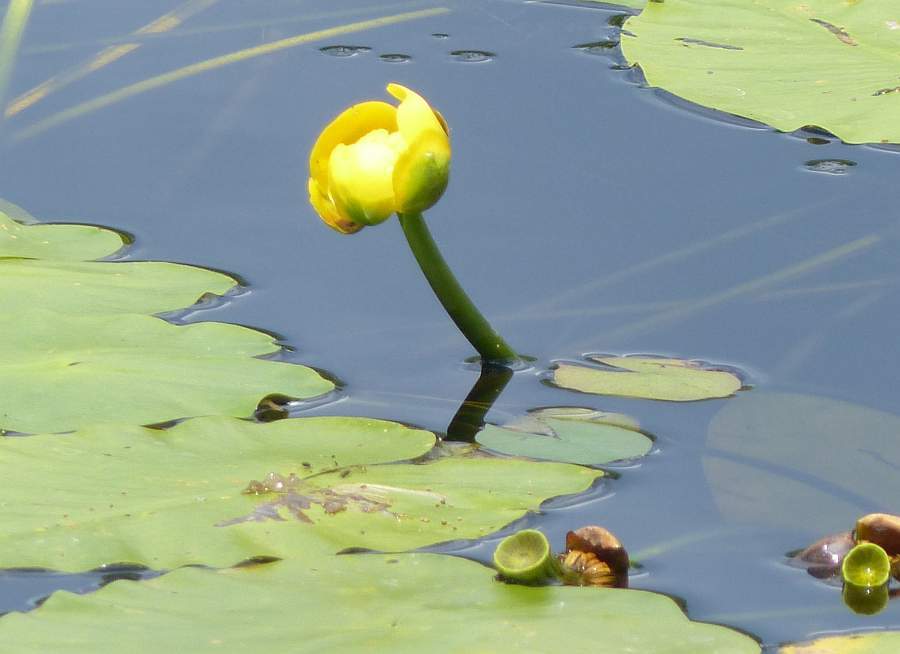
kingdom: Plantae
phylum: Tracheophyta
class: Magnoliopsida
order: Nymphaeales
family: Nymphaeaceae
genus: Nuphar
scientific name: Nuphar variegata
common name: Beaver-root
